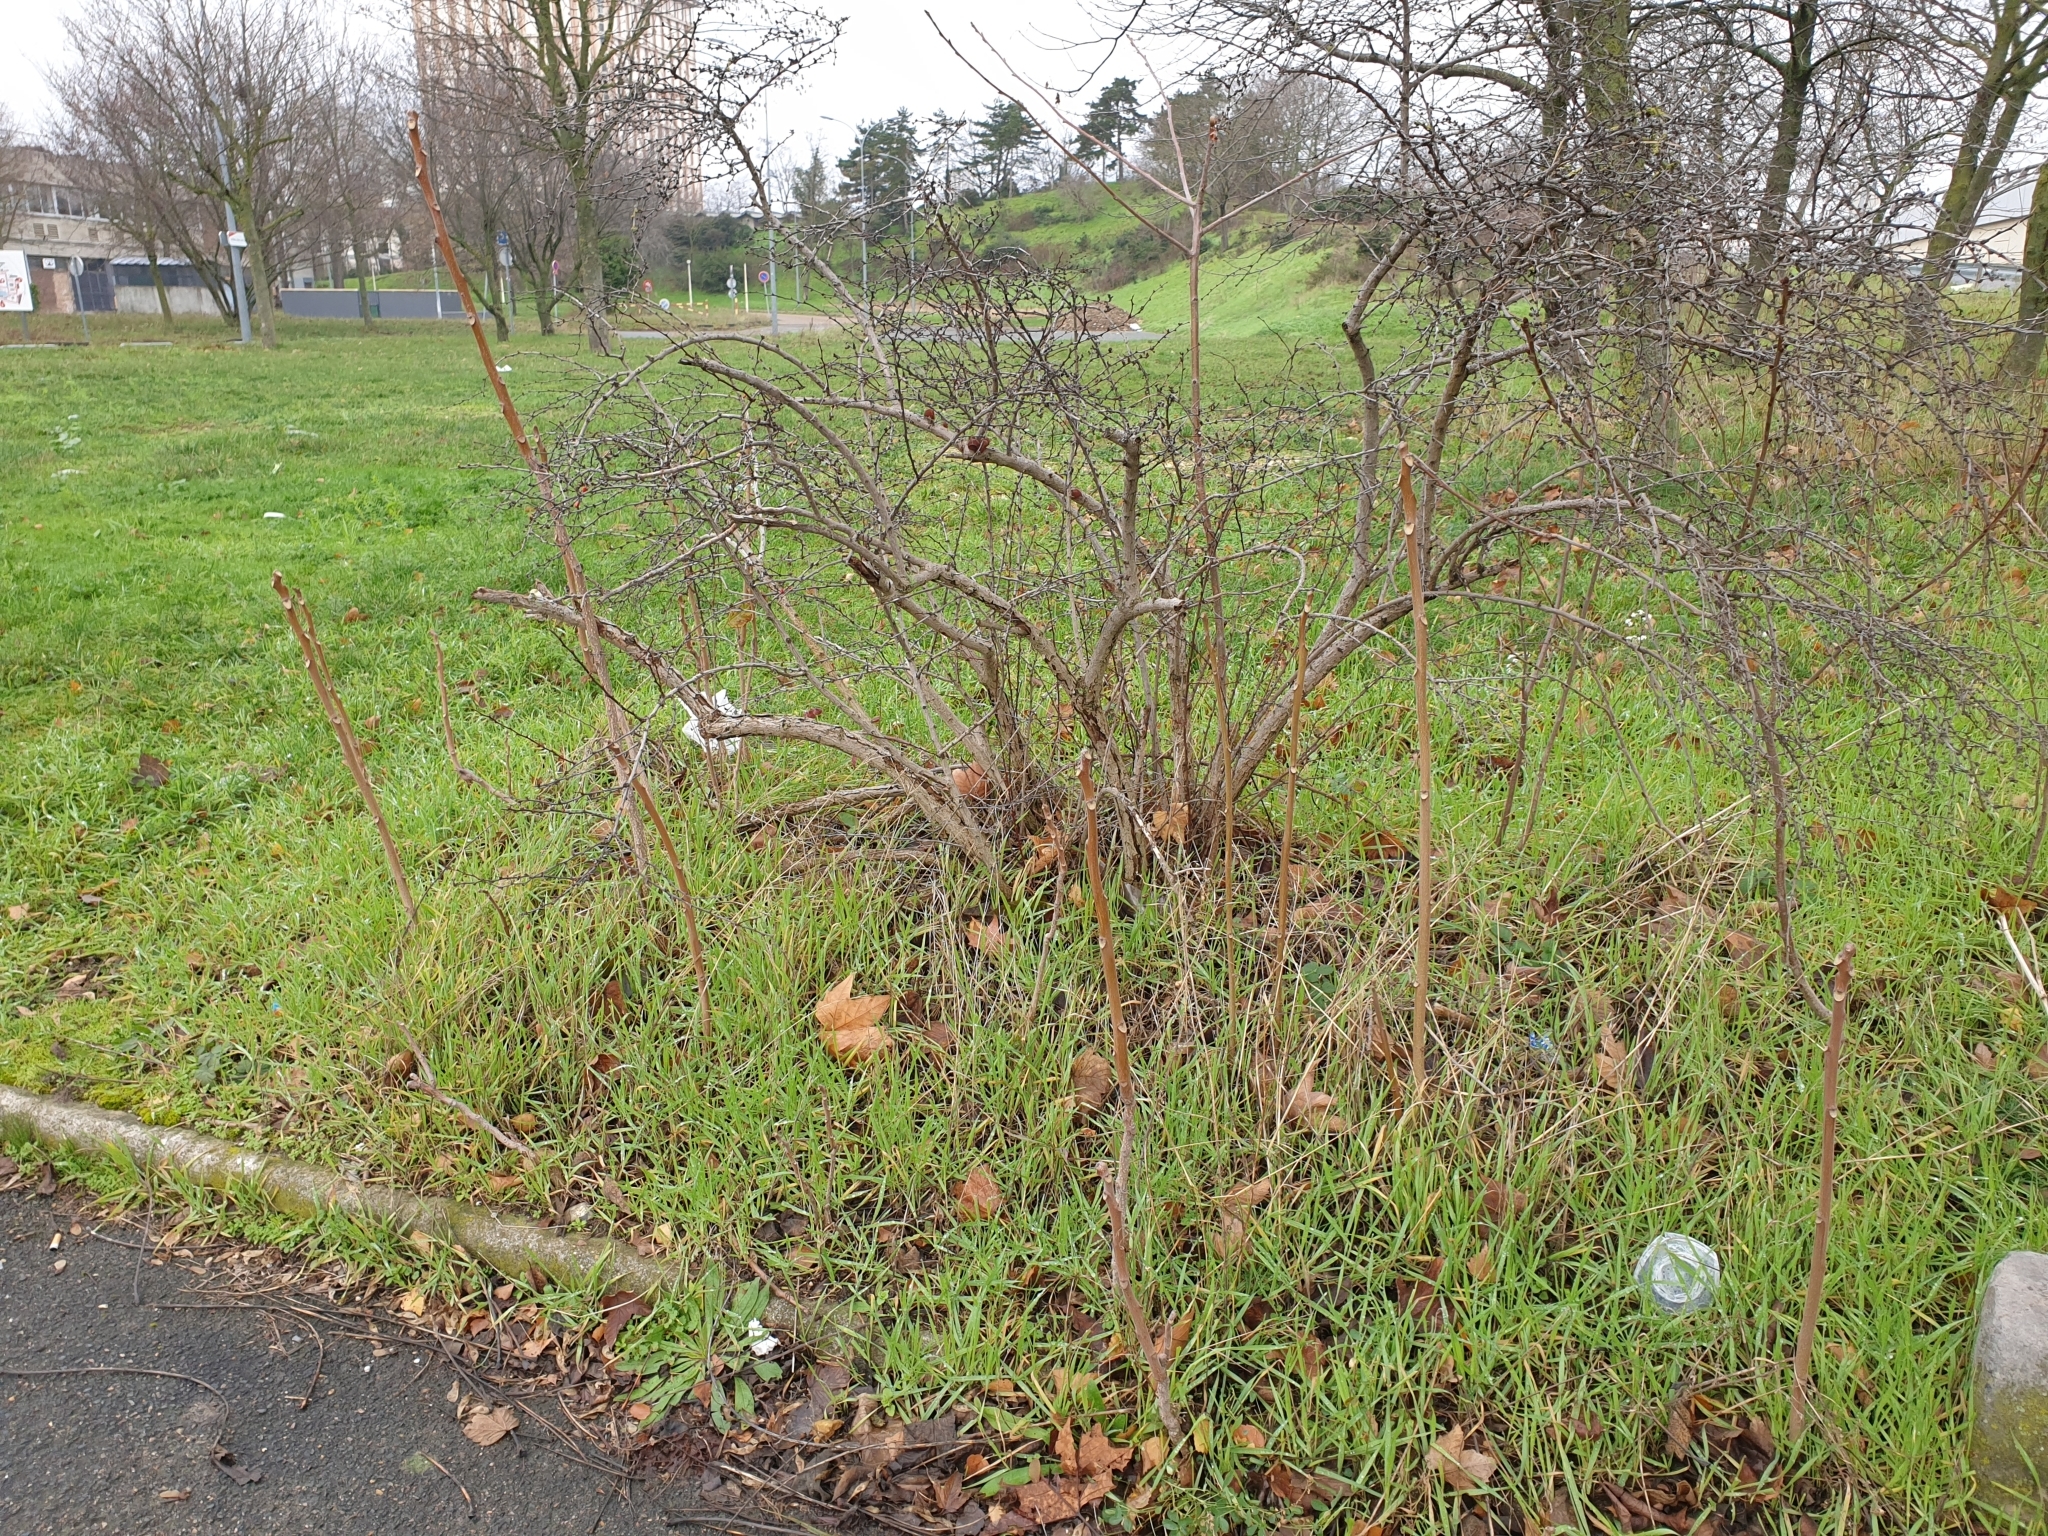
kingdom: Plantae
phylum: Tracheophyta
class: Magnoliopsida
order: Sapindales
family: Simaroubaceae
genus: Ailanthus
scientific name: Ailanthus altissima
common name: Tree-of-heaven
